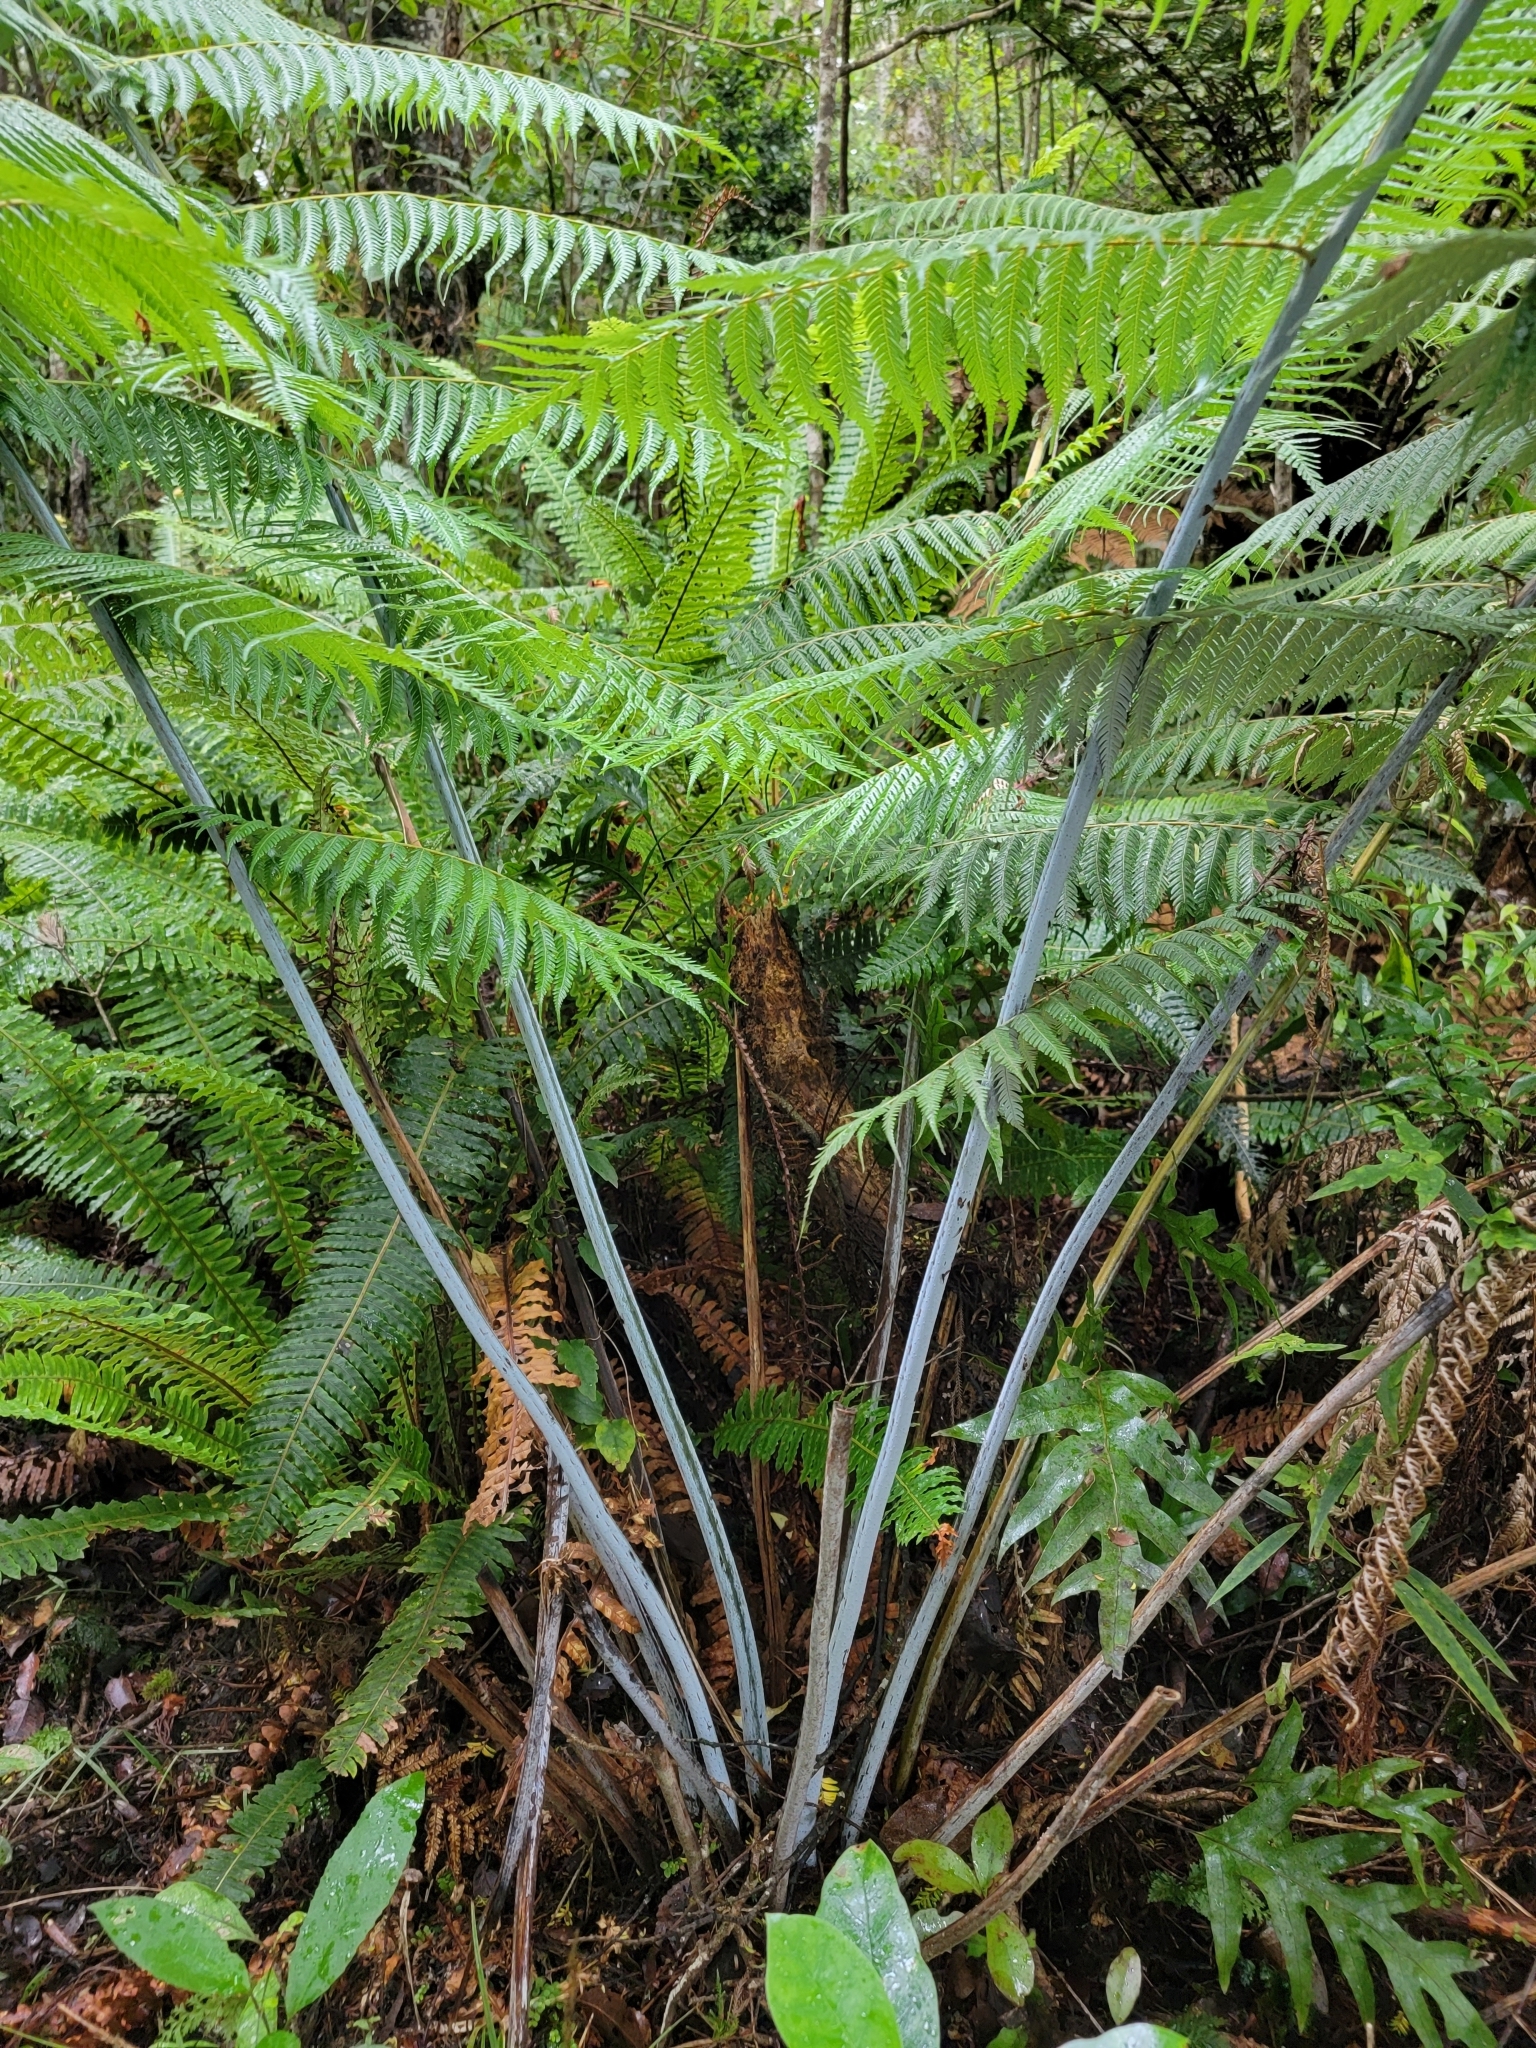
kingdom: Plantae
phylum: Tracheophyta
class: Polypodiopsida
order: Cyatheales
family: Cyatheaceae
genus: Alsophila
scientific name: Alsophila dealbata
